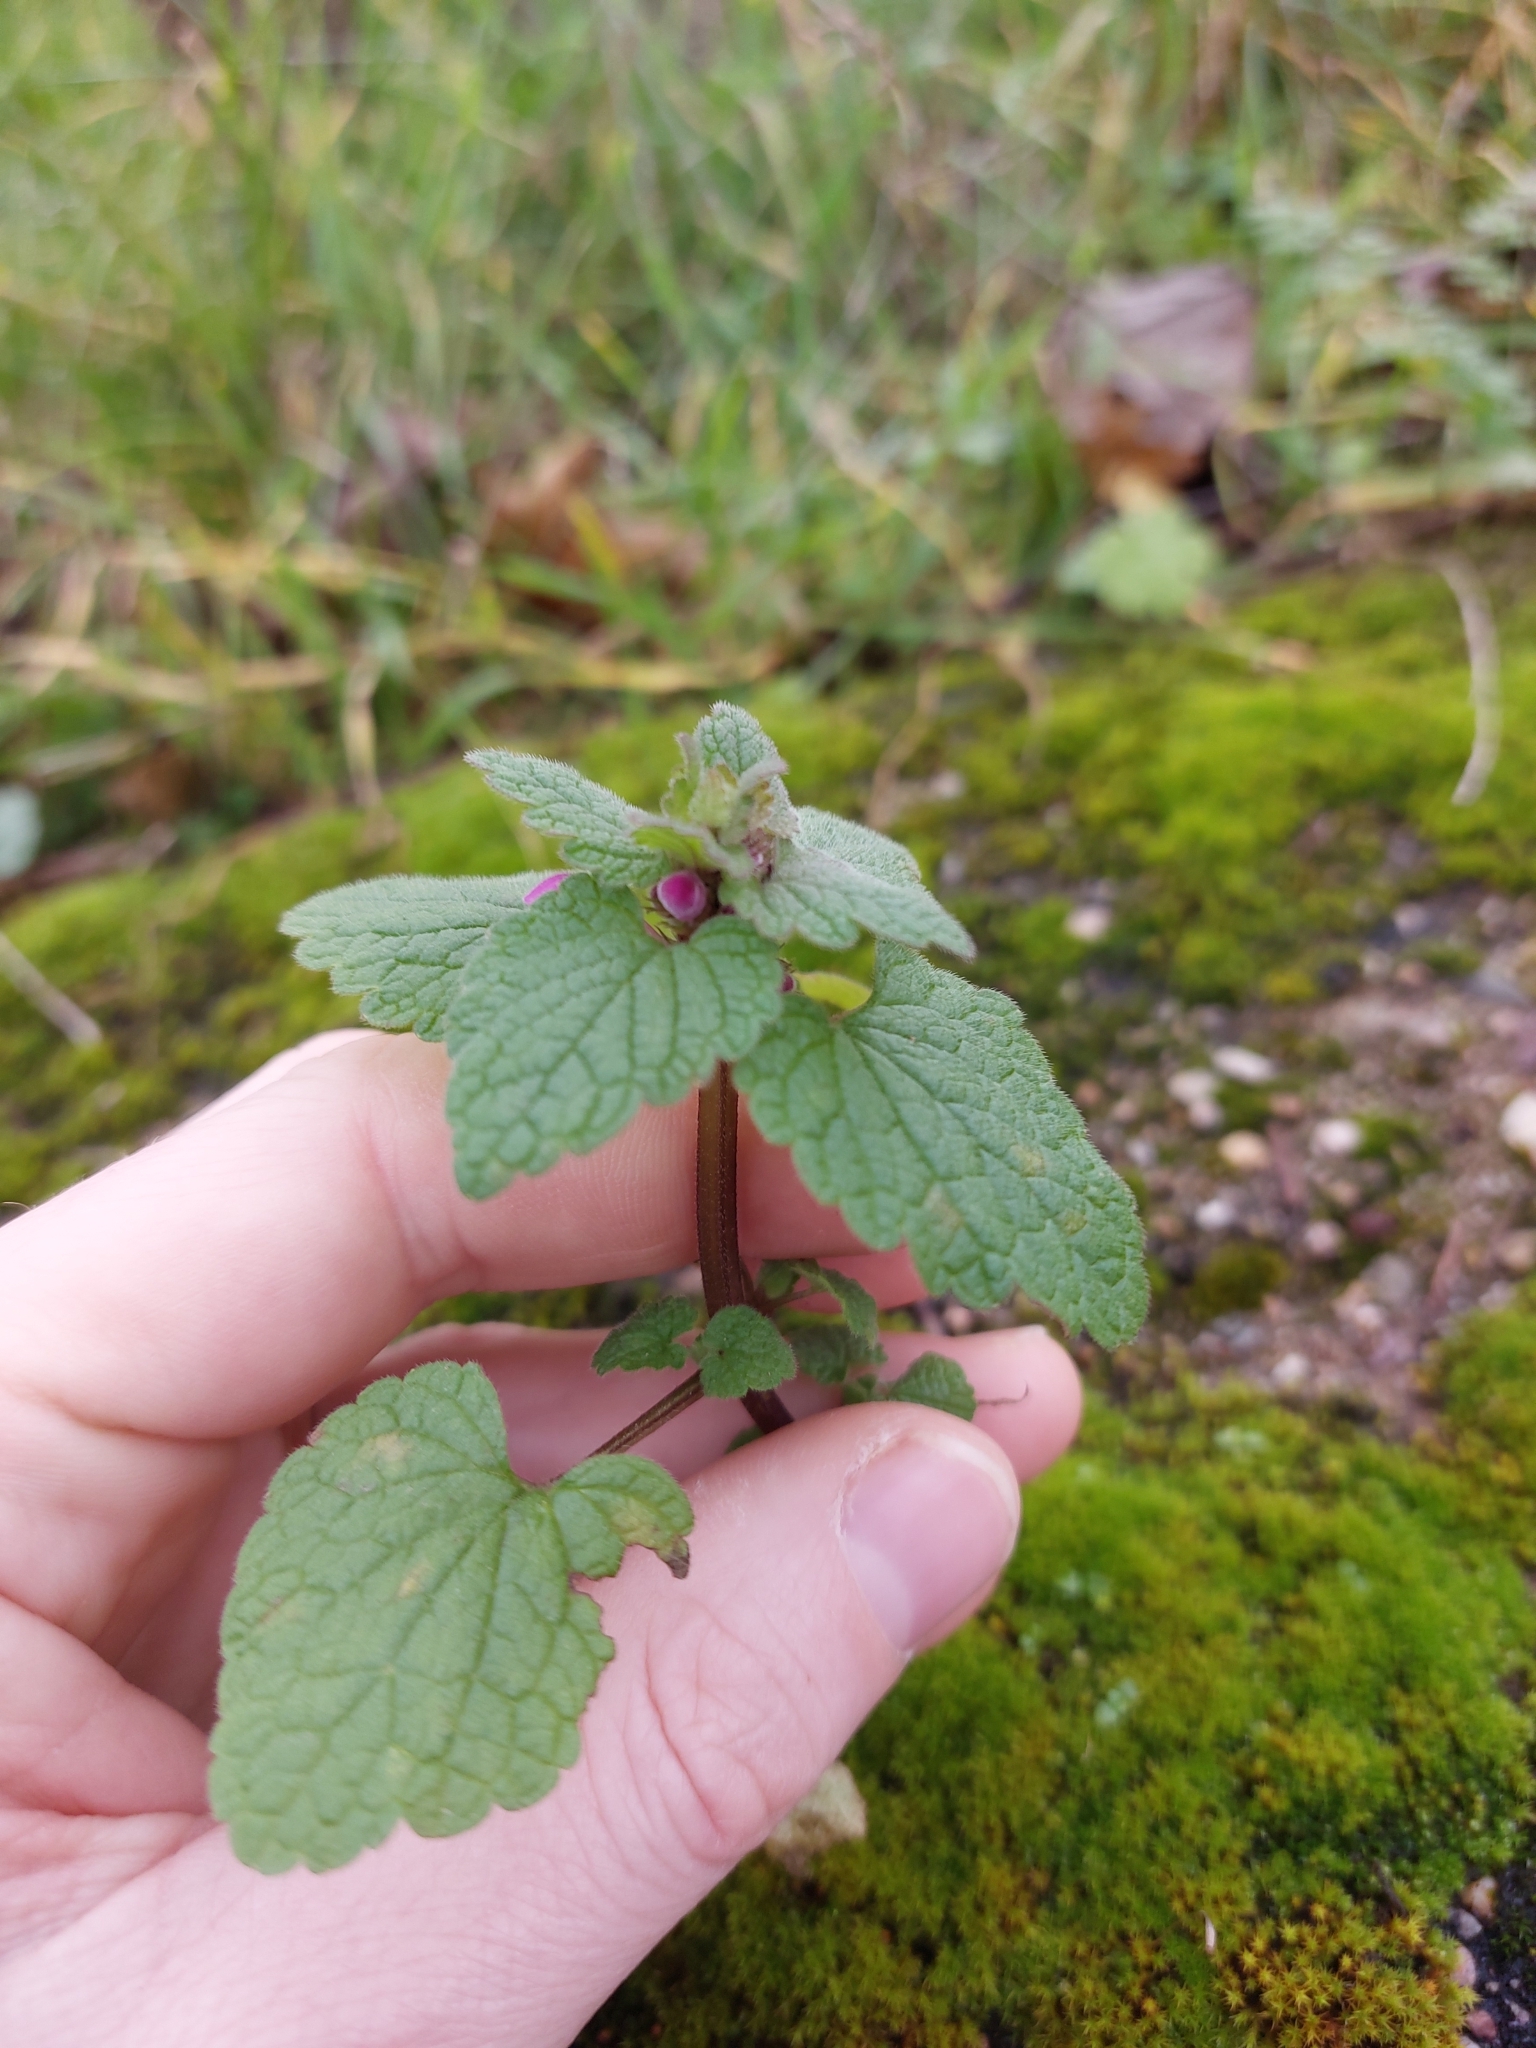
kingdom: Plantae
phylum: Tracheophyta
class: Magnoliopsida
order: Lamiales
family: Lamiaceae
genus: Lamium
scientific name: Lamium purpureum
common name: Red dead-nettle
